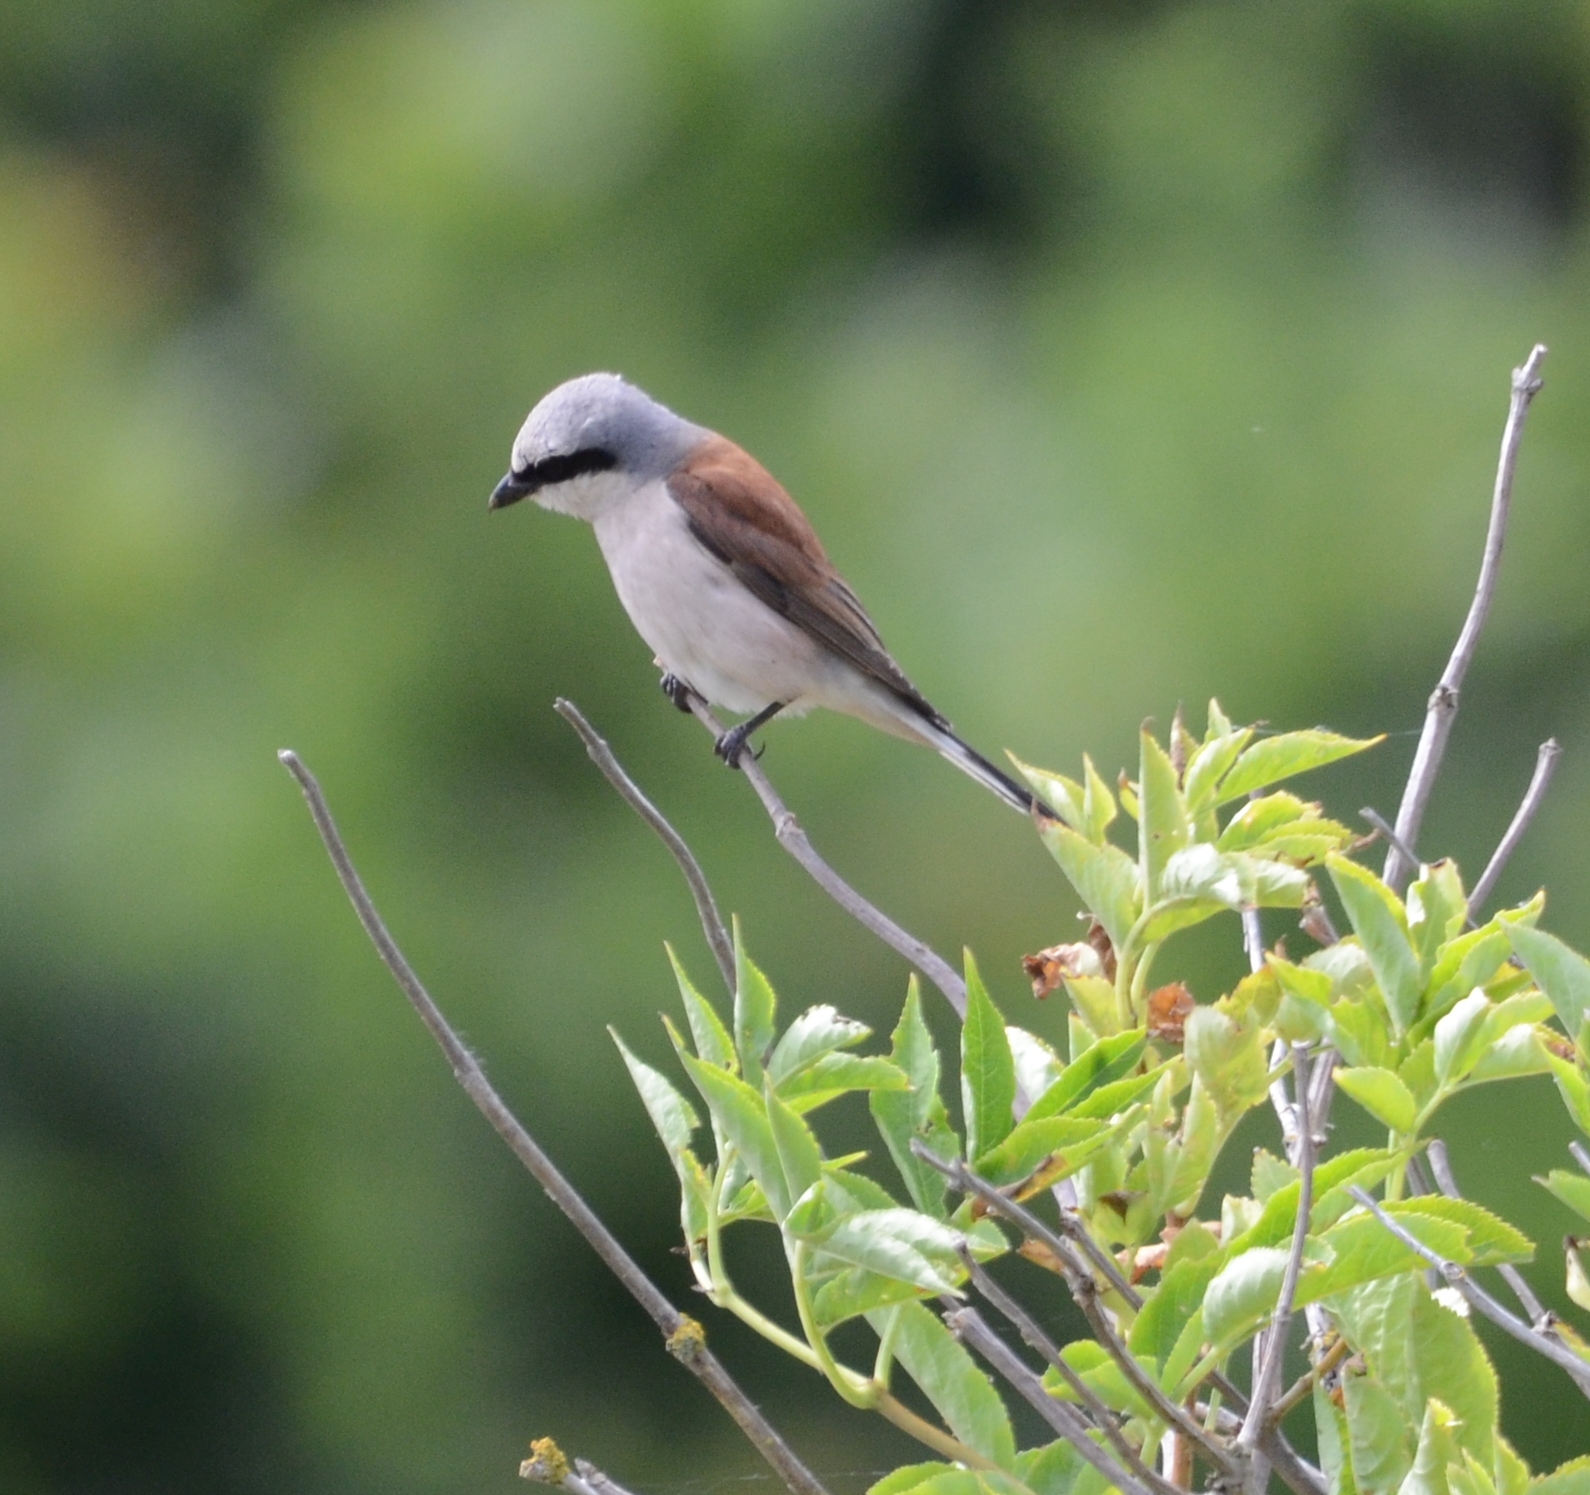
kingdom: Animalia
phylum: Chordata
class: Aves
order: Passeriformes
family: Laniidae
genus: Lanius
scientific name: Lanius collurio
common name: Red-backed shrike
